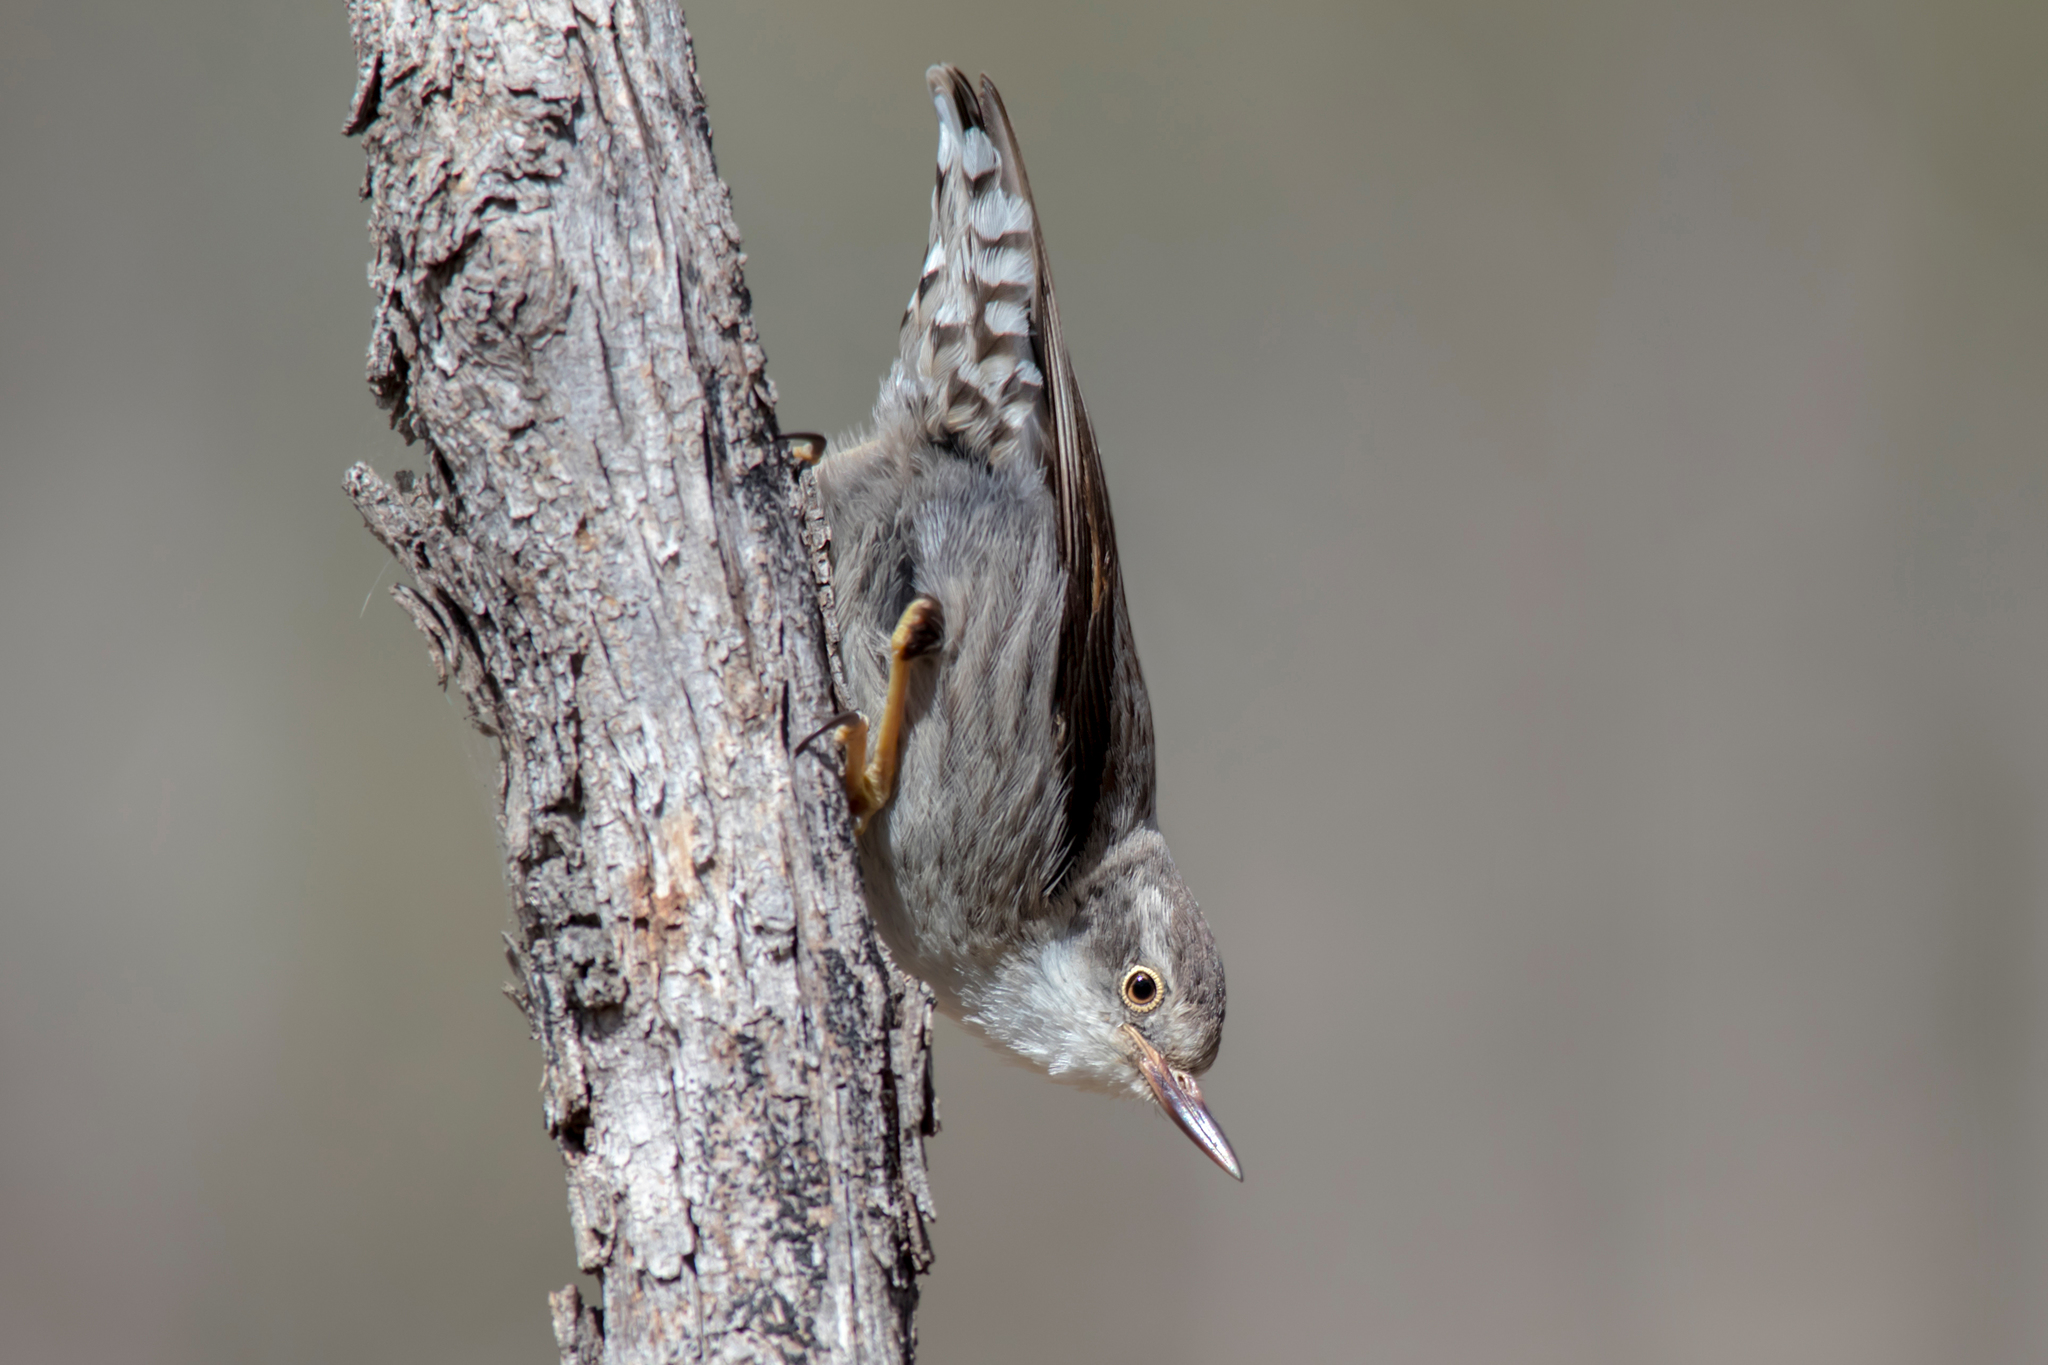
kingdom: Animalia
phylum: Chordata
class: Aves
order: Passeriformes
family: Neosittidae
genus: Daphoenositta
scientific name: Daphoenositta chrysoptera
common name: Varied sittella
